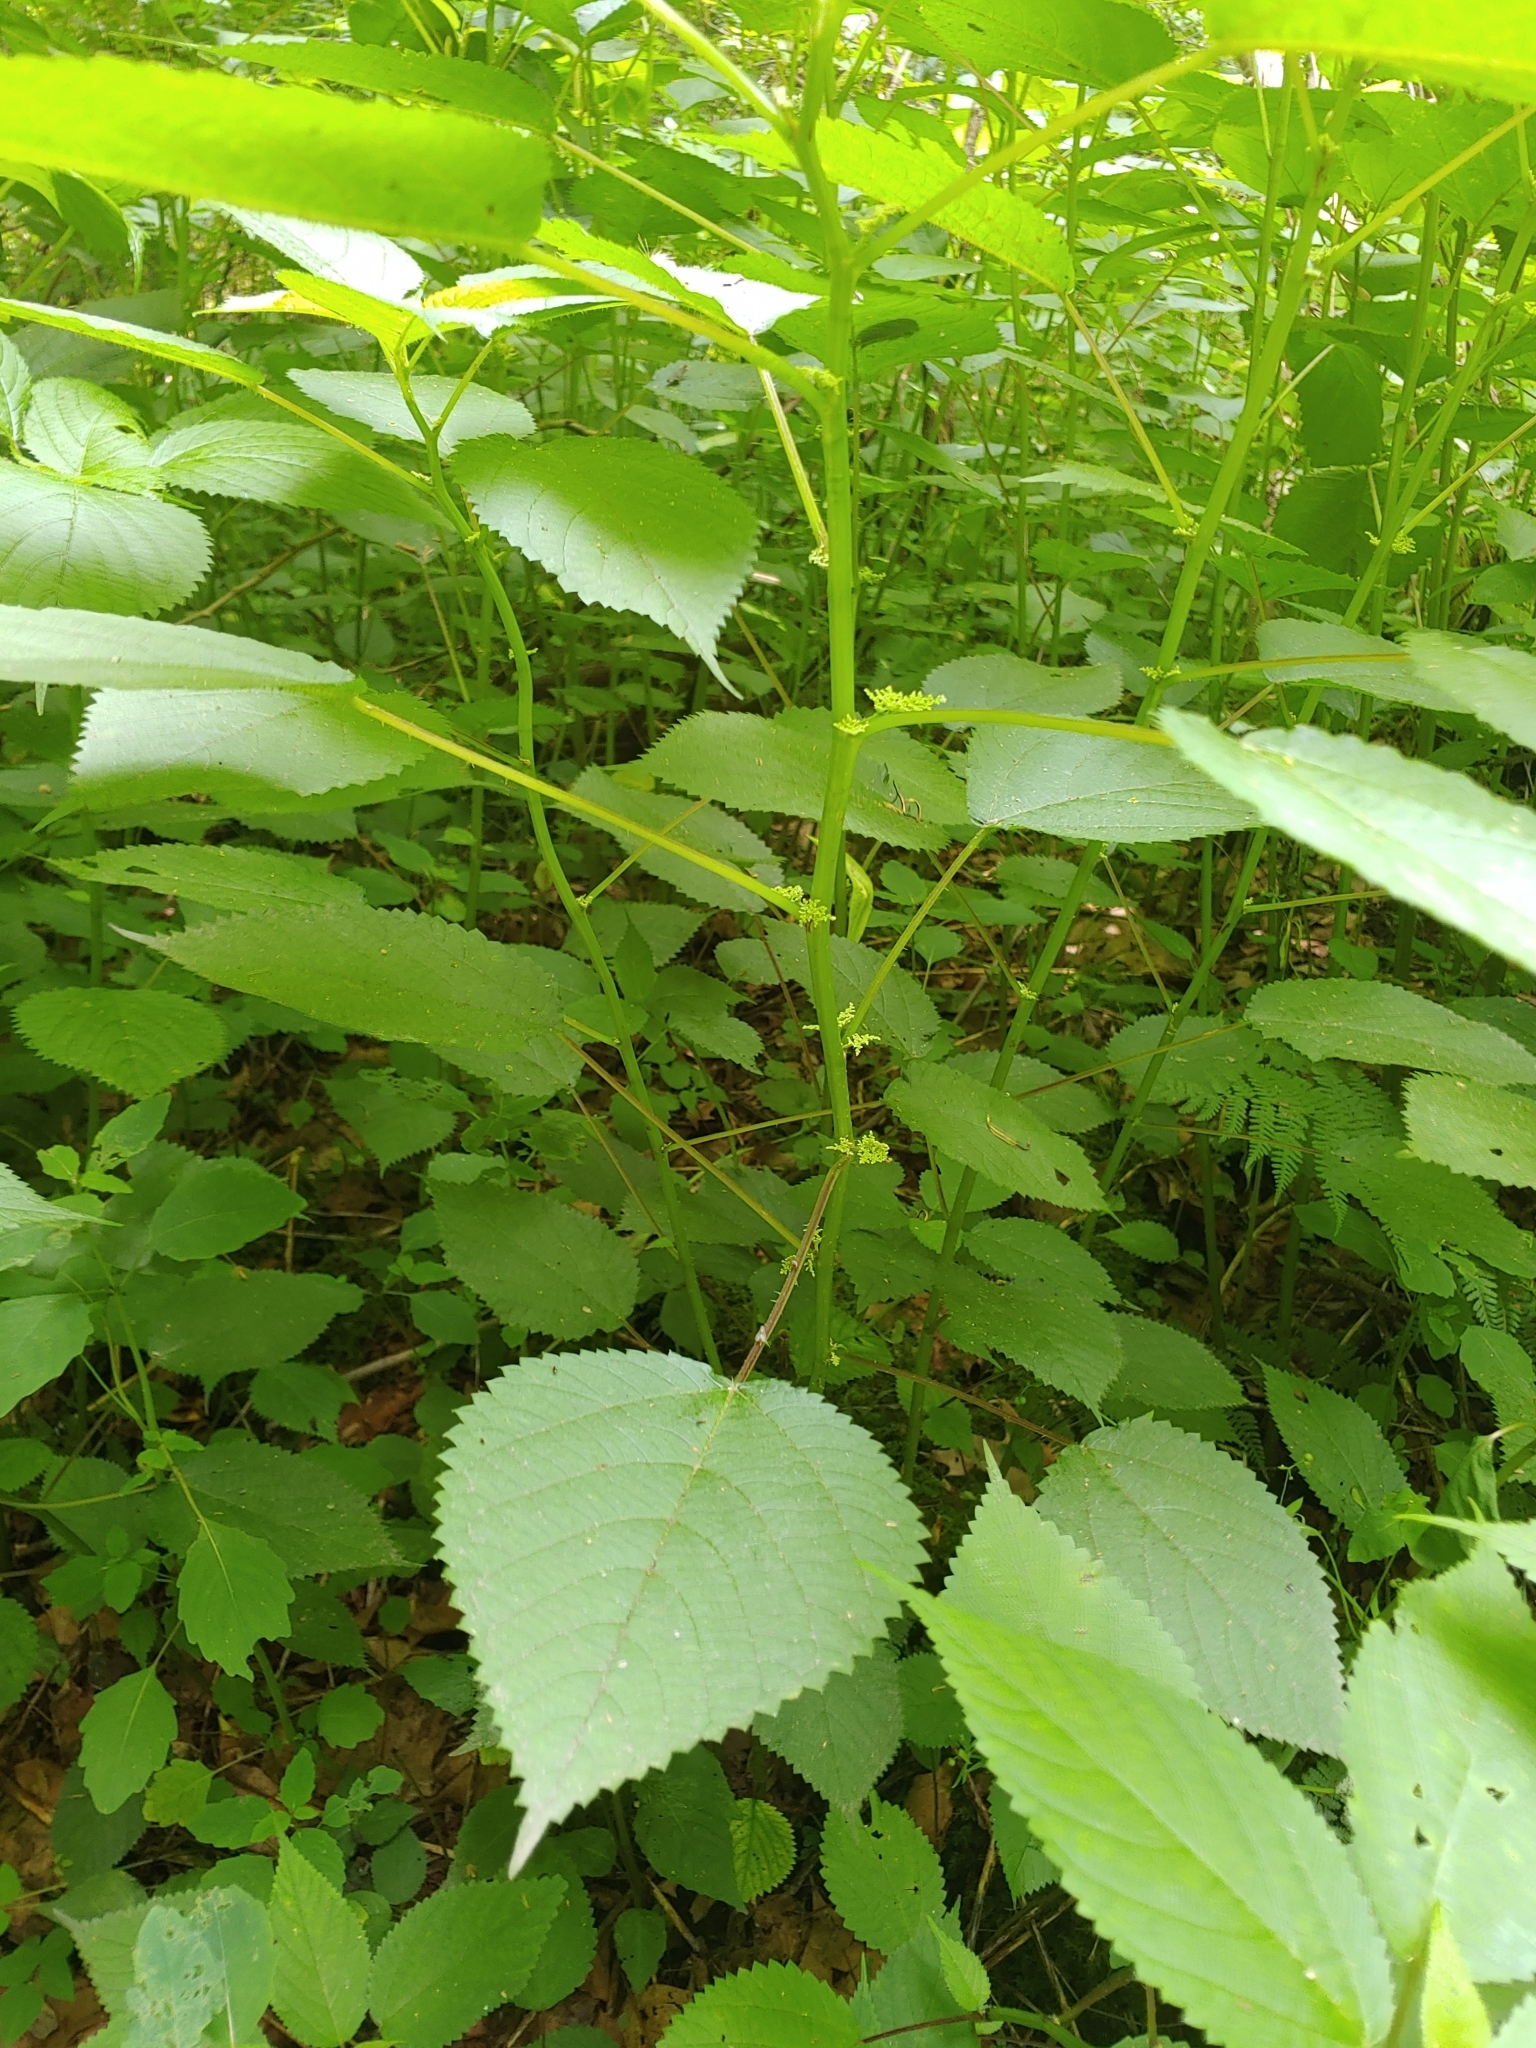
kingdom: Plantae
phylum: Tracheophyta
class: Magnoliopsida
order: Rosales
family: Urticaceae
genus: Laportea
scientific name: Laportea canadensis
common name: Canada nettle
